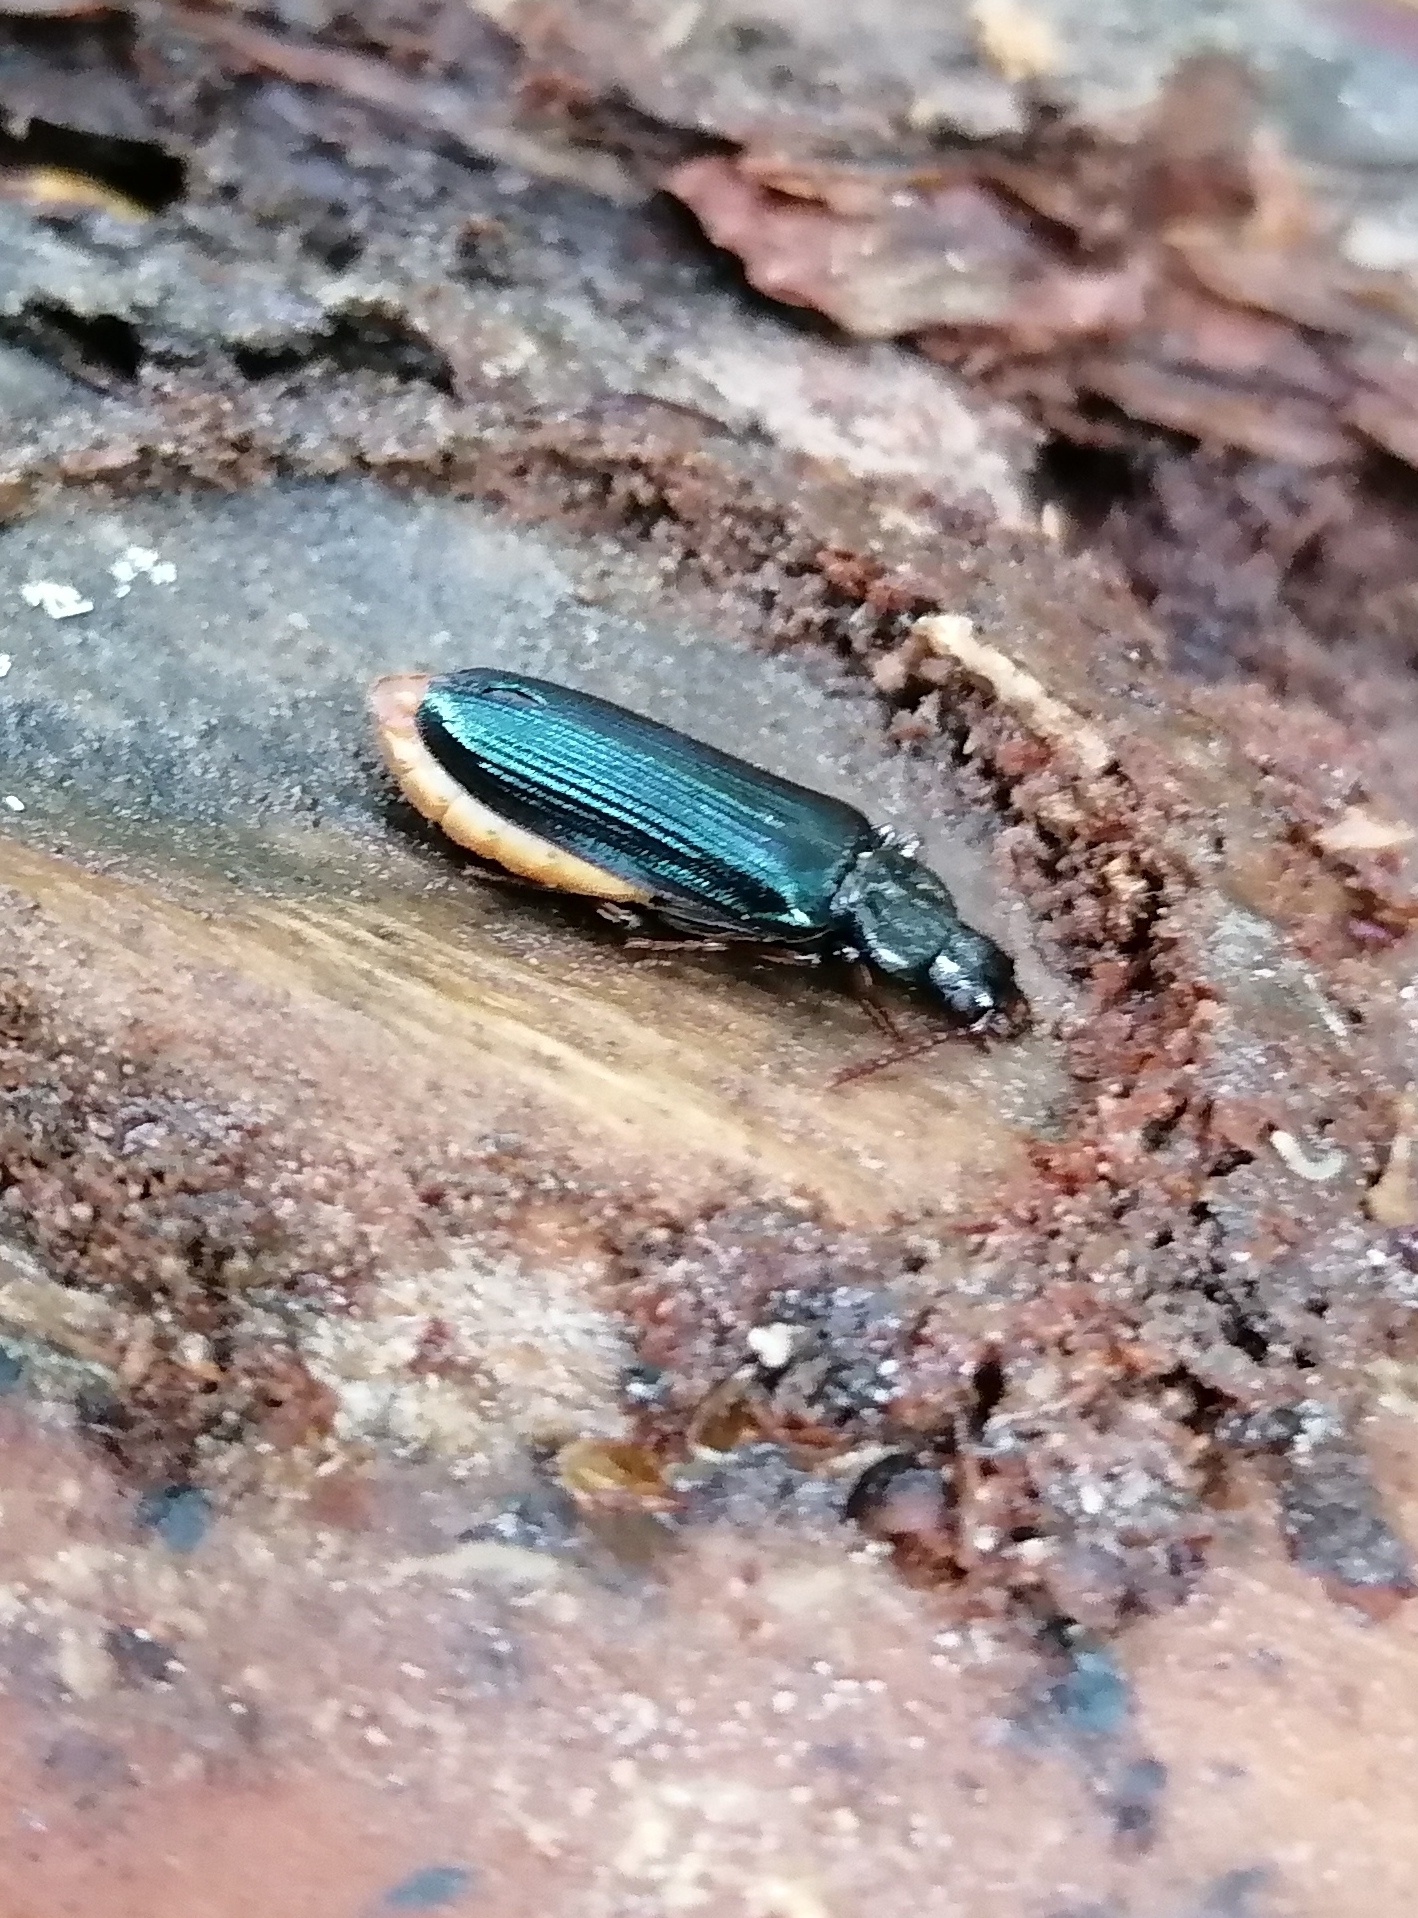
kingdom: Animalia
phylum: Arthropoda
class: Insecta
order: Coleoptera
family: Pythidae
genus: Pytho
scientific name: Pytho depressus
